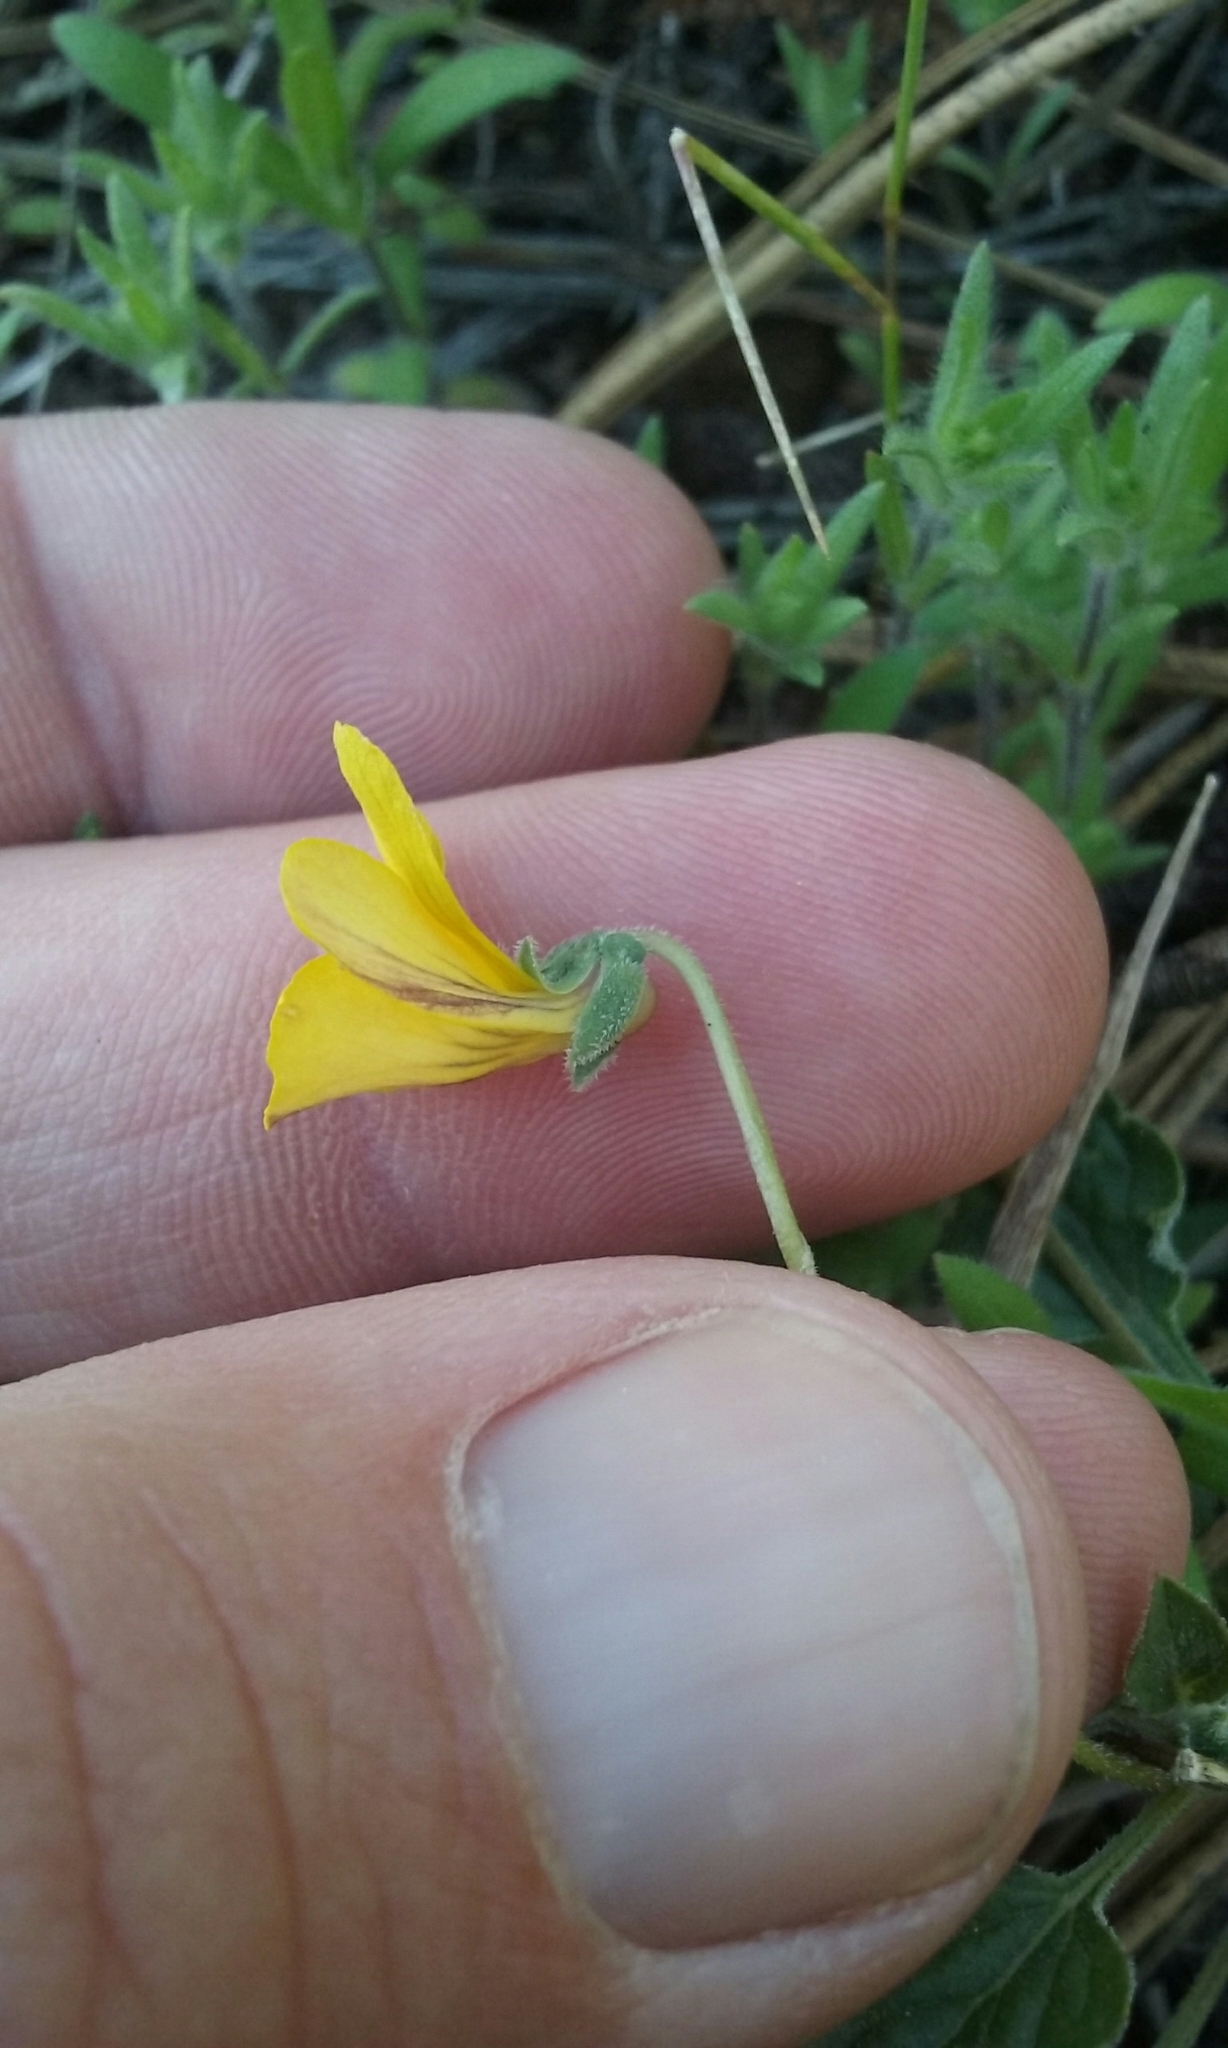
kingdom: Plantae
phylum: Tracheophyta
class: Magnoliopsida
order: Malpighiales
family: Violaceae
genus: Viola
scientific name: Viola purpurea
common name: Pine violet
